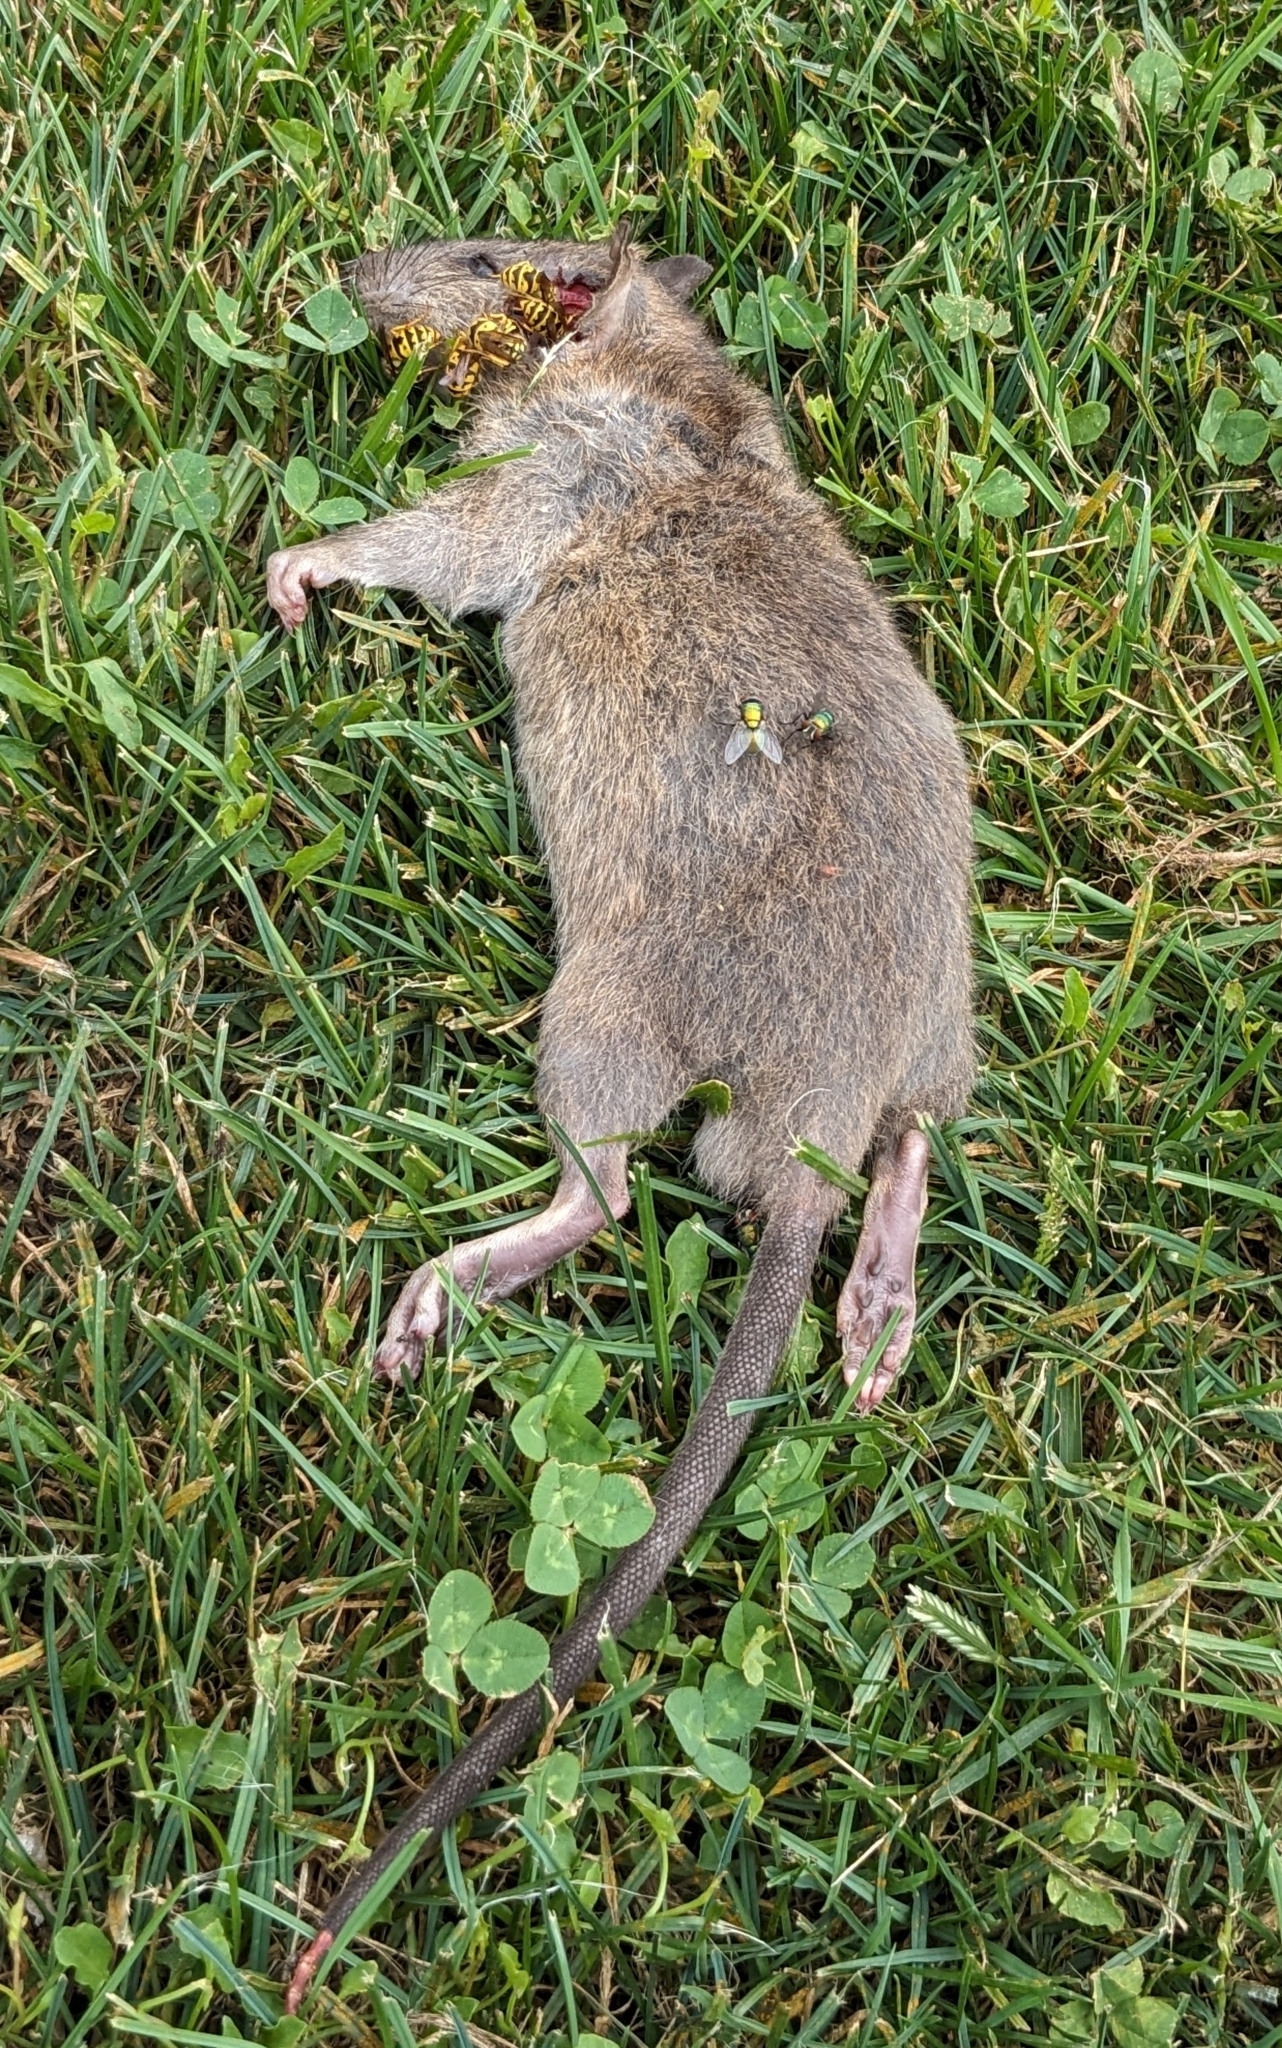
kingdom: Animalia
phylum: Chordata
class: Mammalia
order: Rodentia
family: Muridae
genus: Rattus
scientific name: Rattus norvegicus
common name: Brown rat
